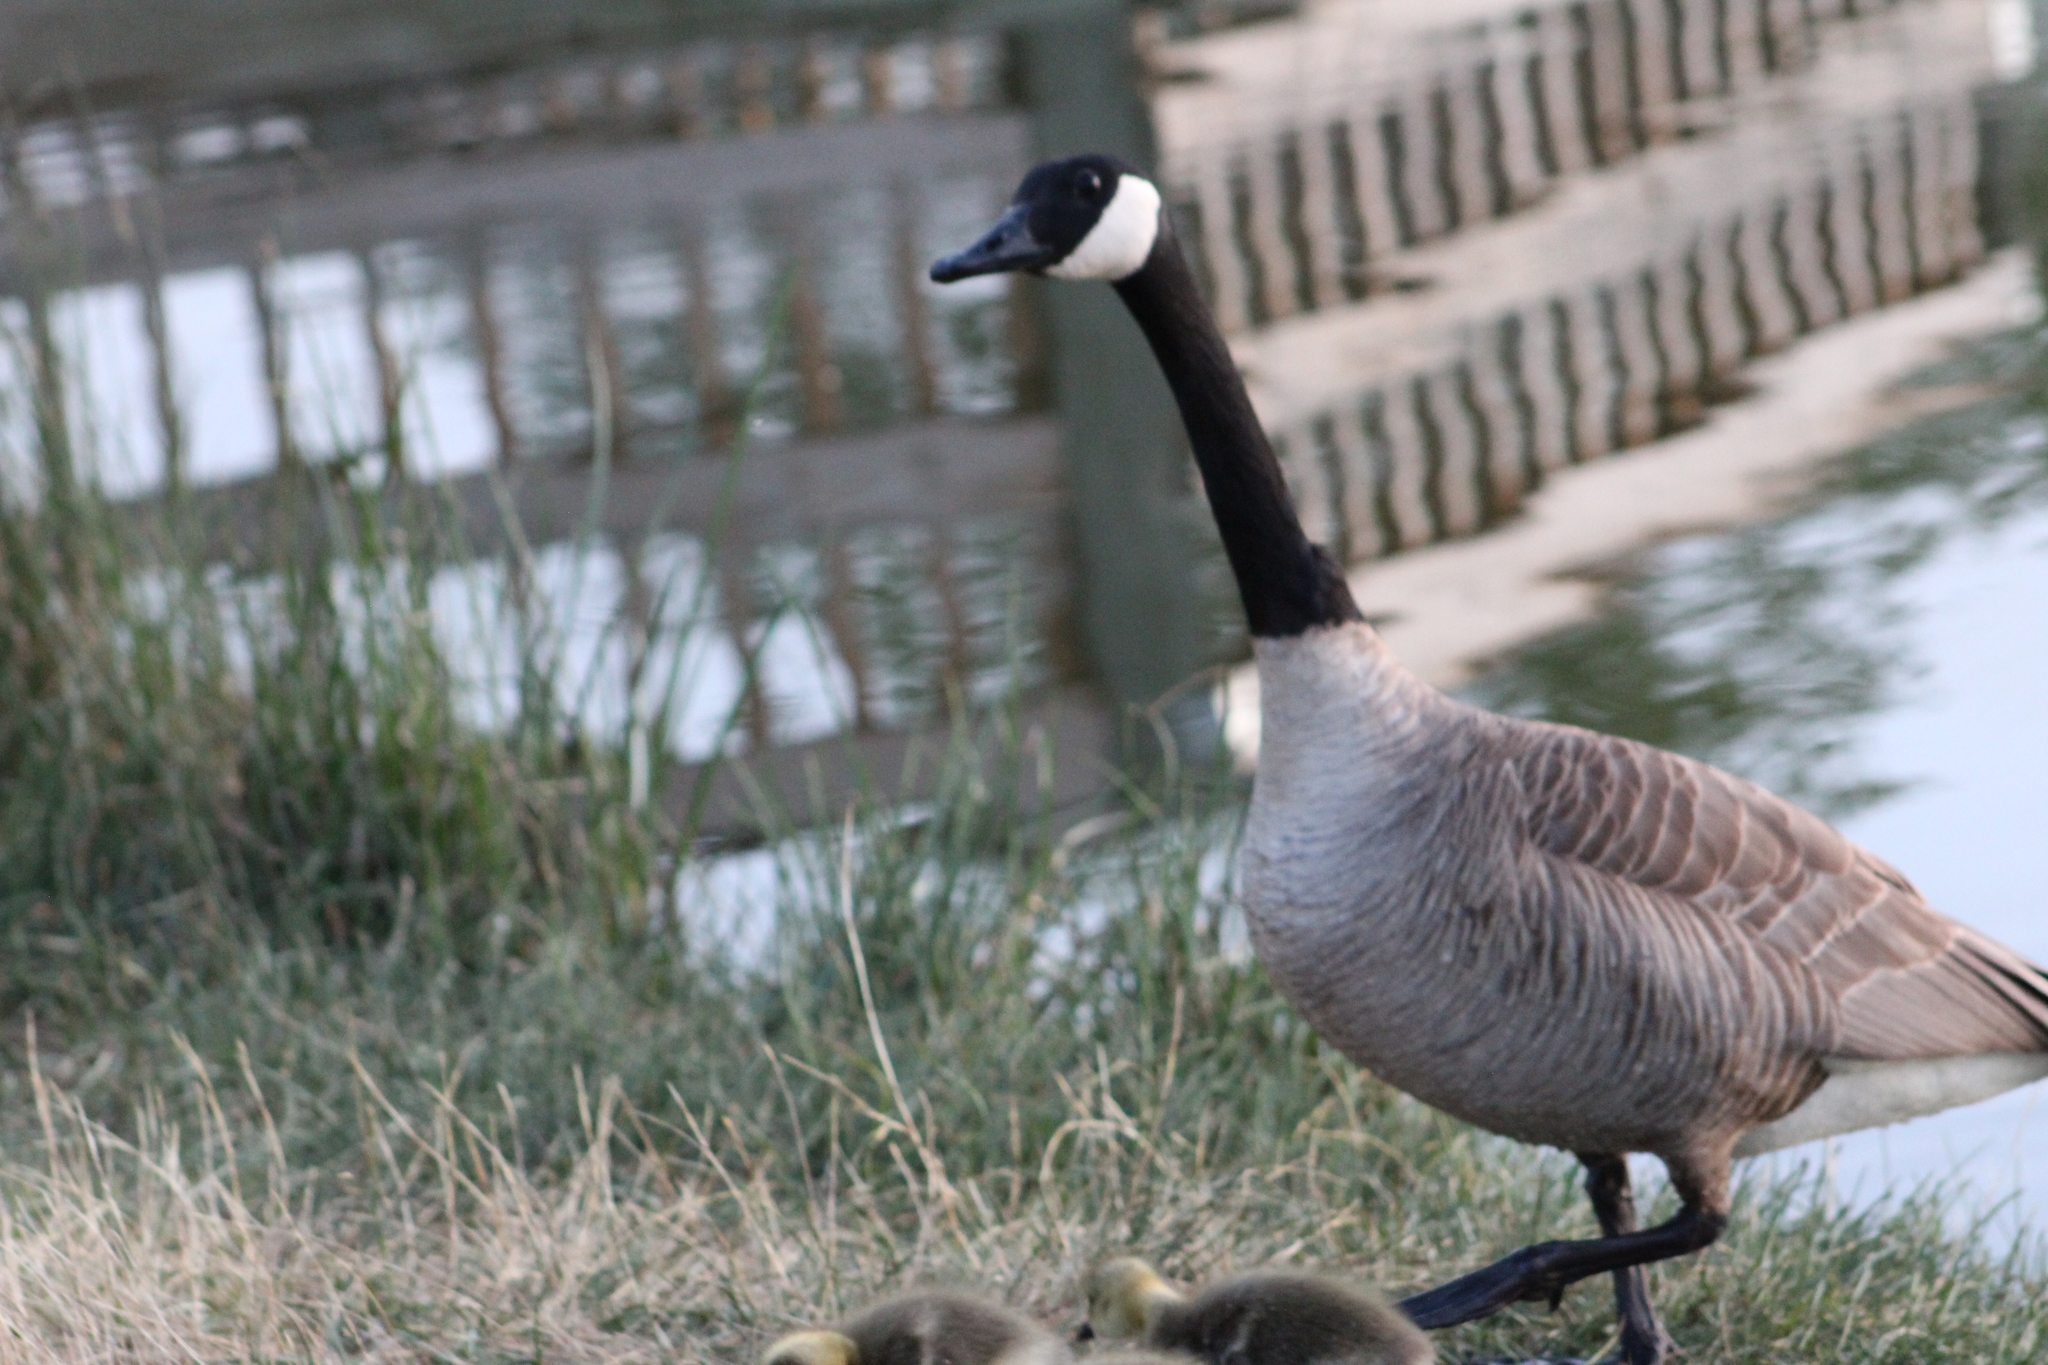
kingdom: Animalia
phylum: Chordata
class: Aves
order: Anseriformes
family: Anatidae
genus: Branta
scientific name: Branta canadensis
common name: Canada goose
